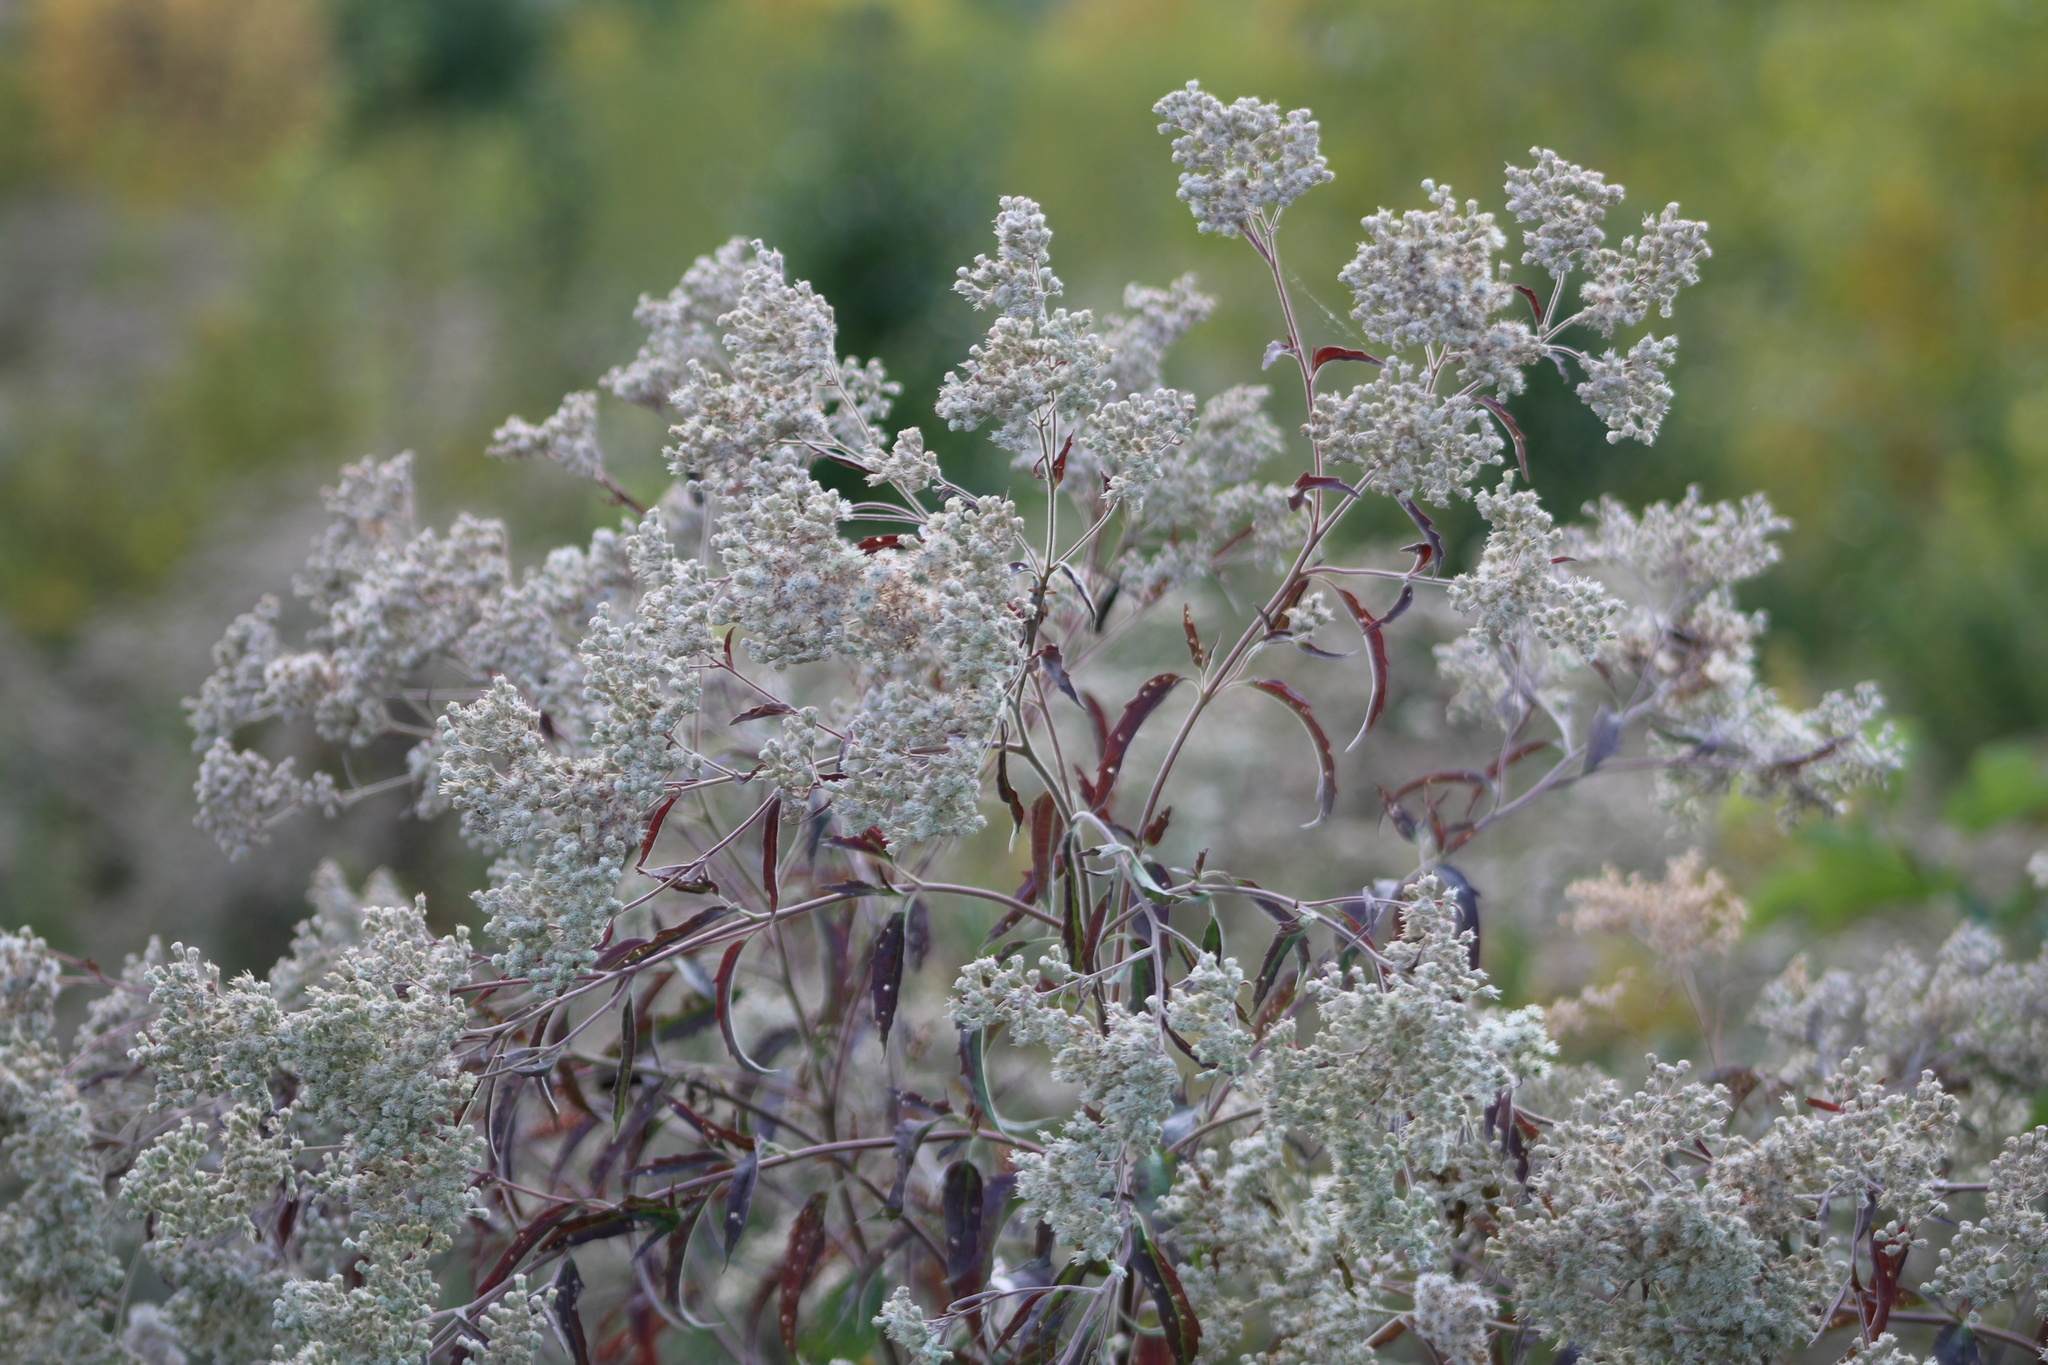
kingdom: Plantae
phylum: Tracheophyta
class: Magnoliopsida
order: Asterales
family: Asteraceae
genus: Eupatorium
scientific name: Eupatorium serotinum
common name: Late boneset
